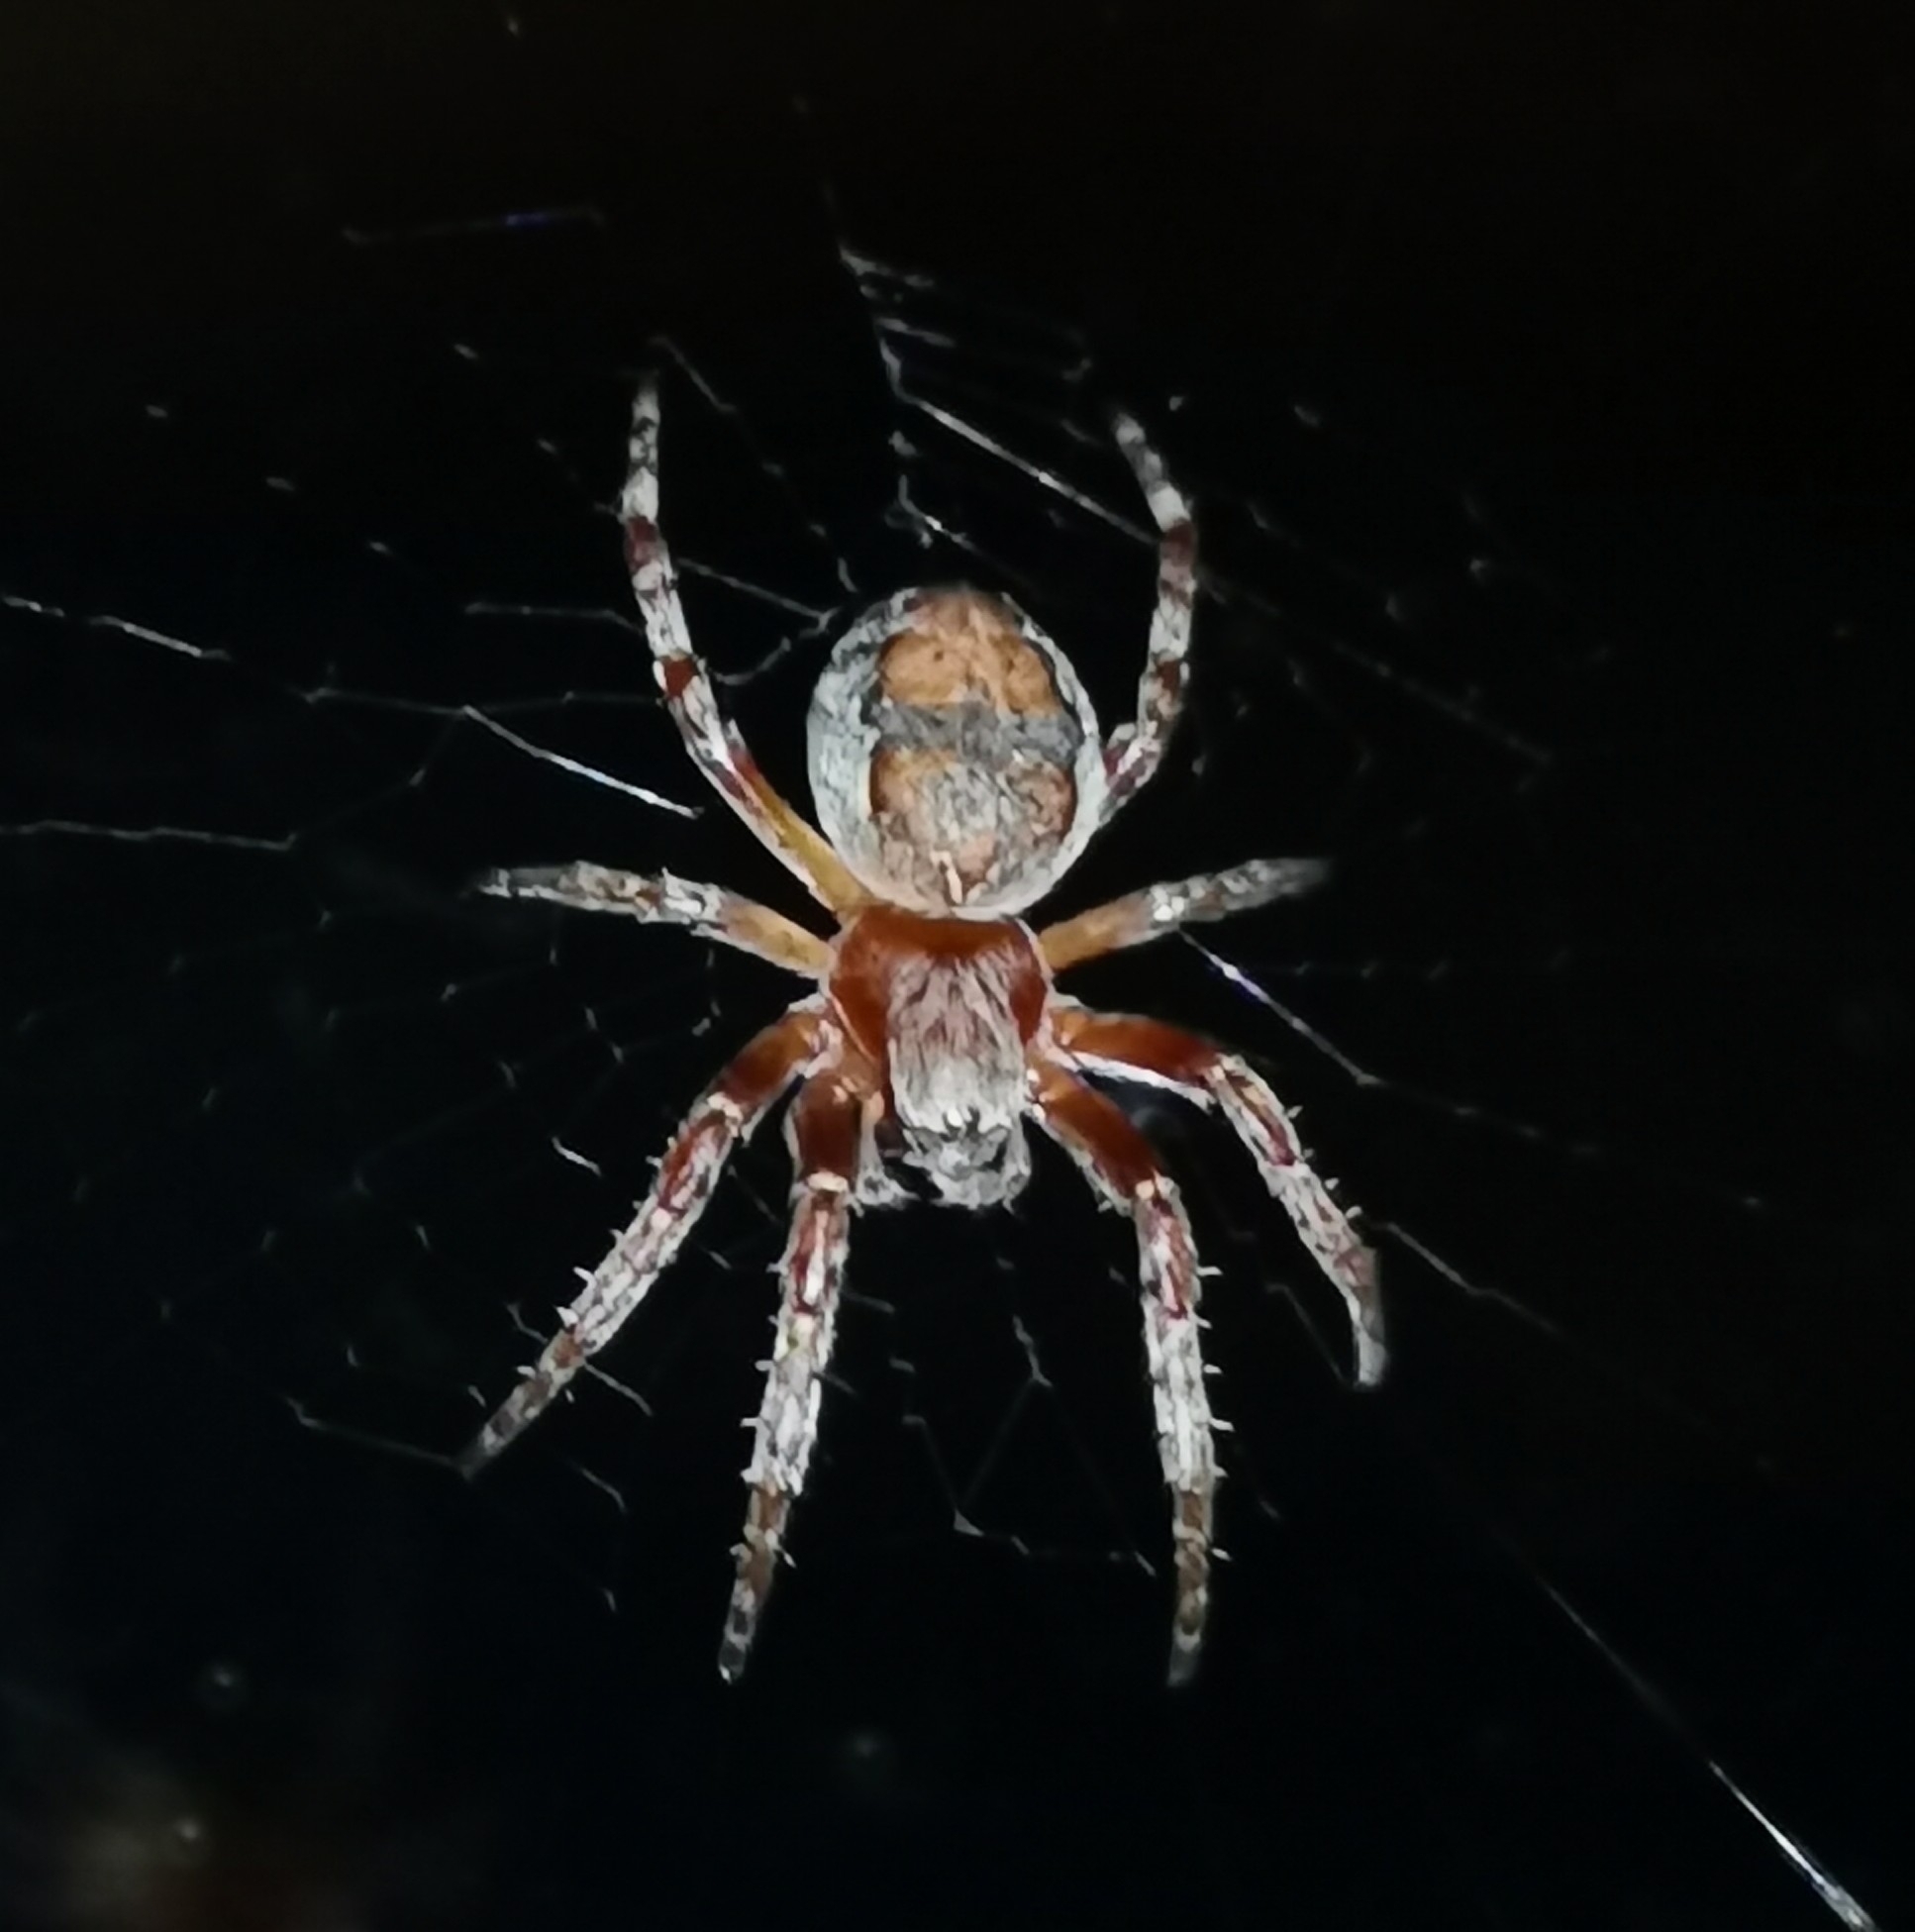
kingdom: Animalia
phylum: Arthropoda
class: Arachnida
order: Araneae
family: Araneidae
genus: Larinioides
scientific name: Larinioides patagiatus
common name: Ornamental orbweaver
